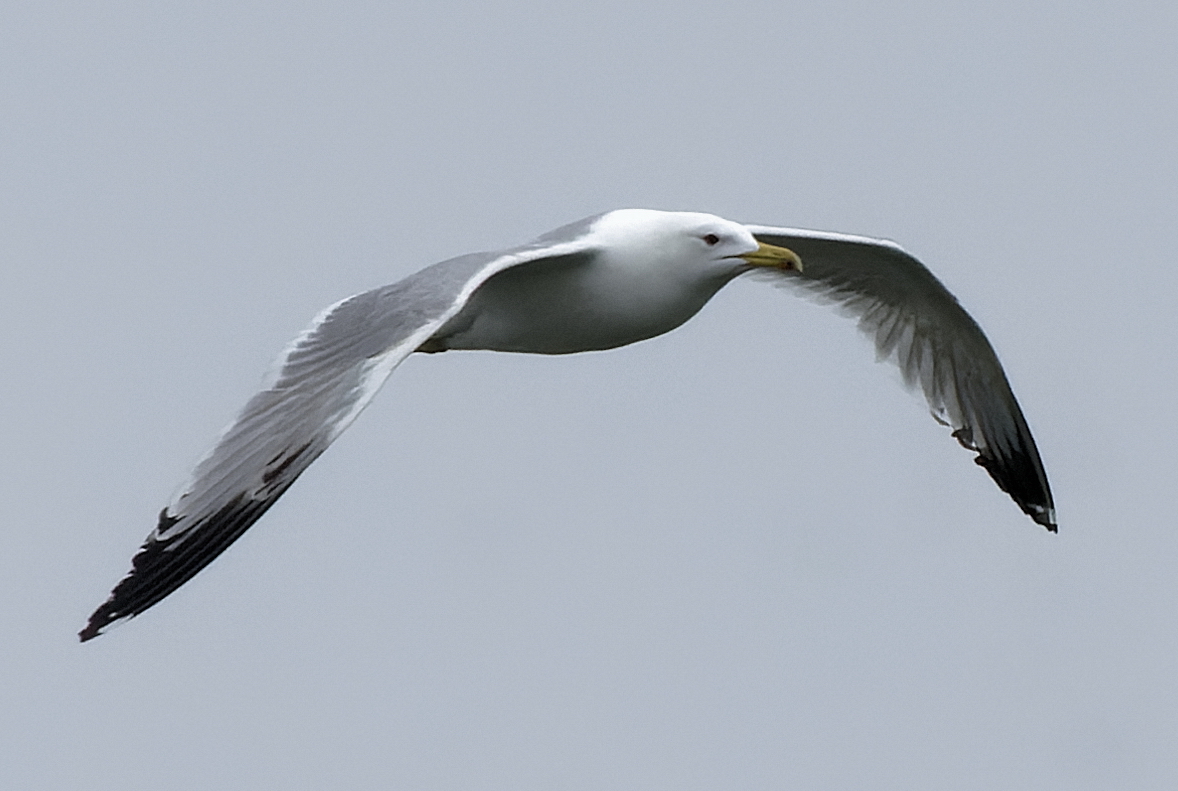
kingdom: Animalia
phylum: Chordata
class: Aves
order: Charadriiformes
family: Laridae
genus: Larus
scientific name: Larus cachinnans
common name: Caspian gull
